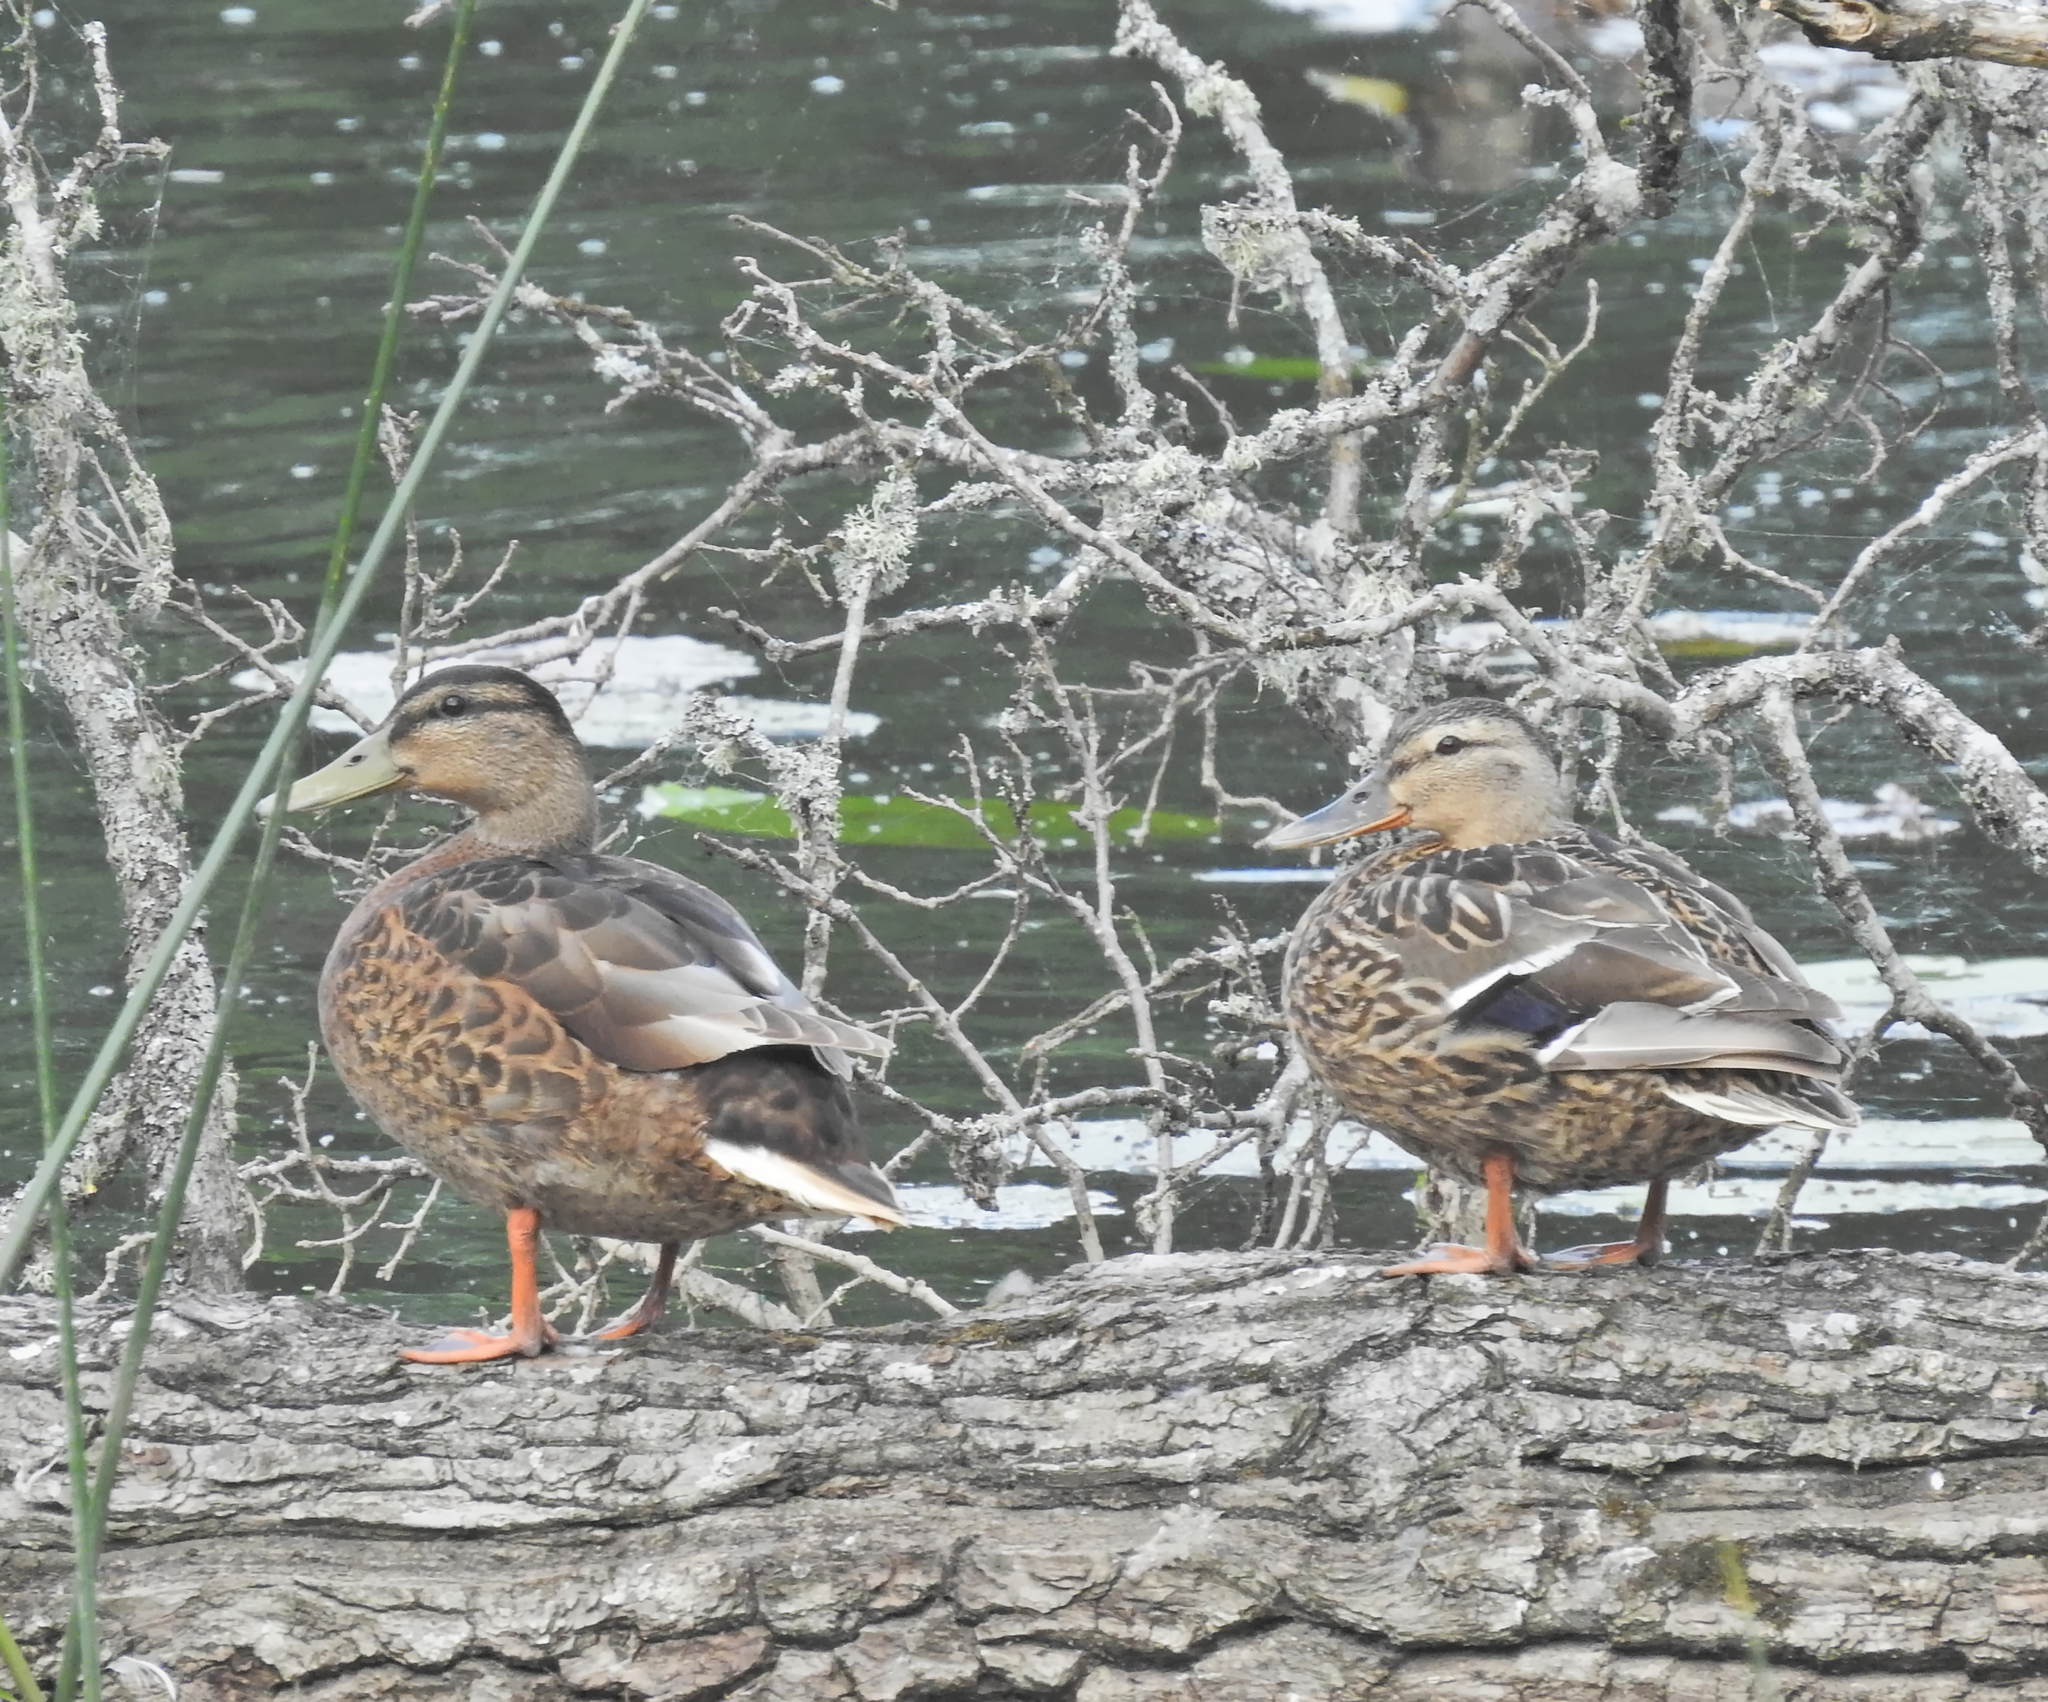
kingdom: Animalia
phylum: Chordata
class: Aves
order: Anseriformes
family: Anatidae
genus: Anas
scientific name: Anas platyrhynchos
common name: Mallard
